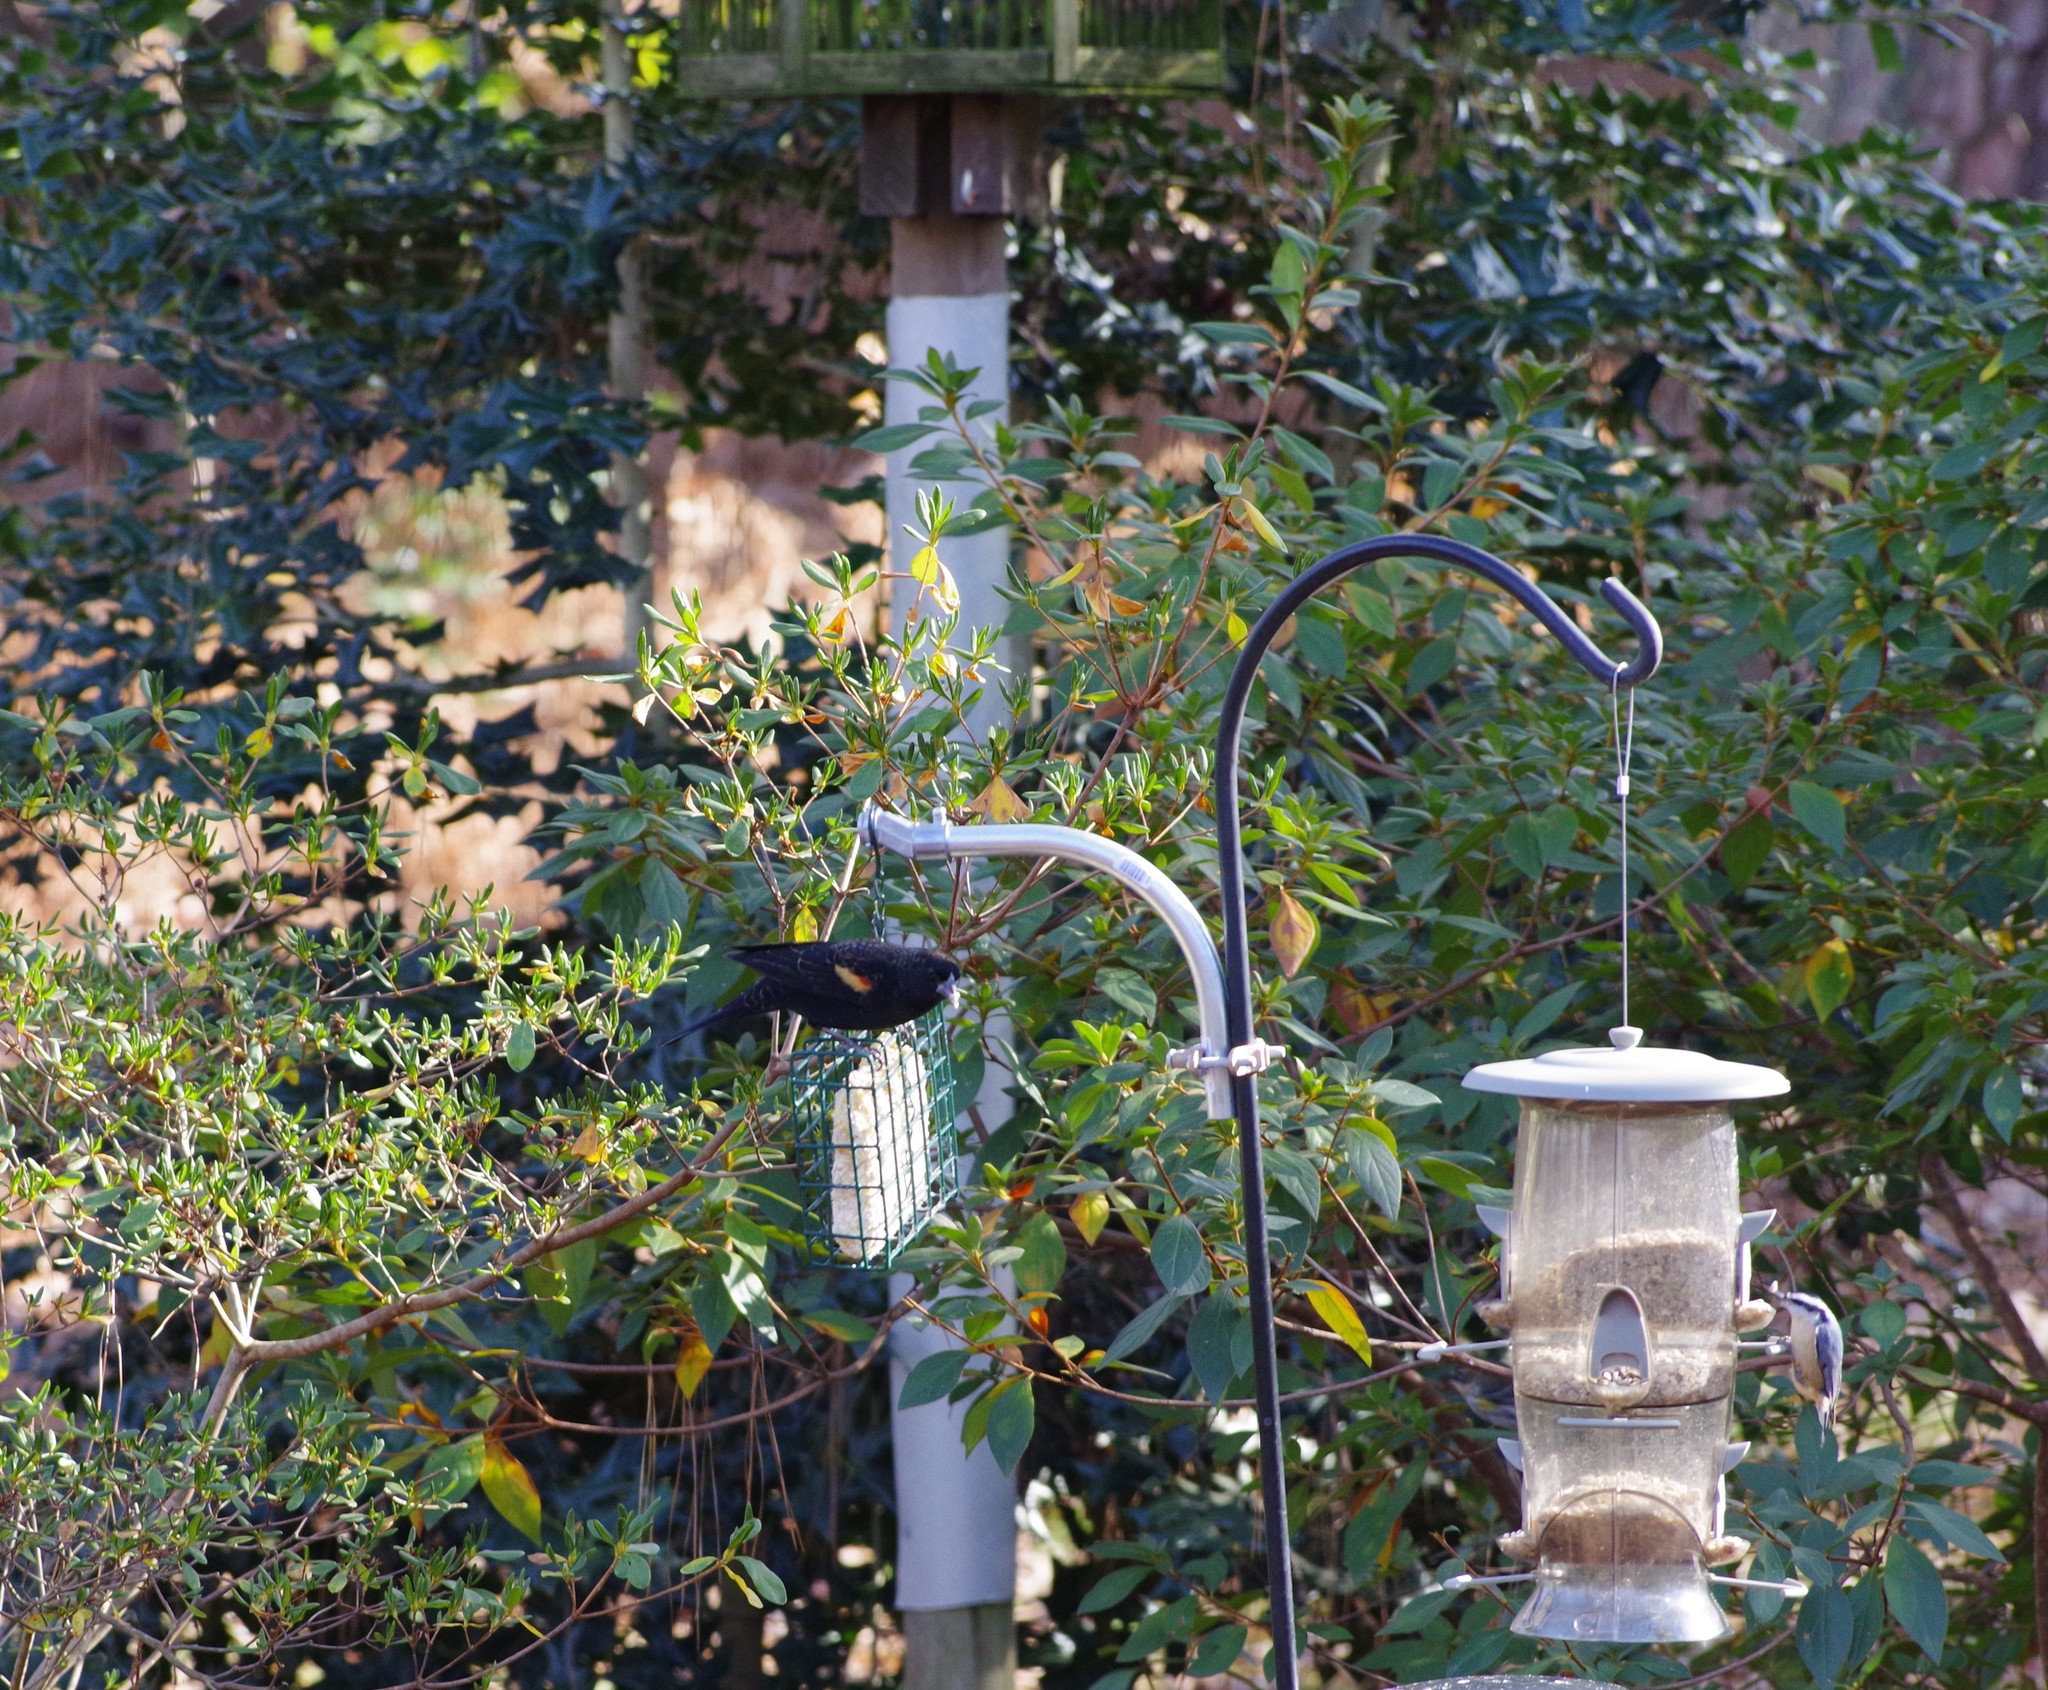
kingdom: Animalia
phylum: Chordata
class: Aves
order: Passeriformes
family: Icteridae
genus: Agelaius
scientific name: Agelaius phoeniceus
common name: Red-winged blackbird
